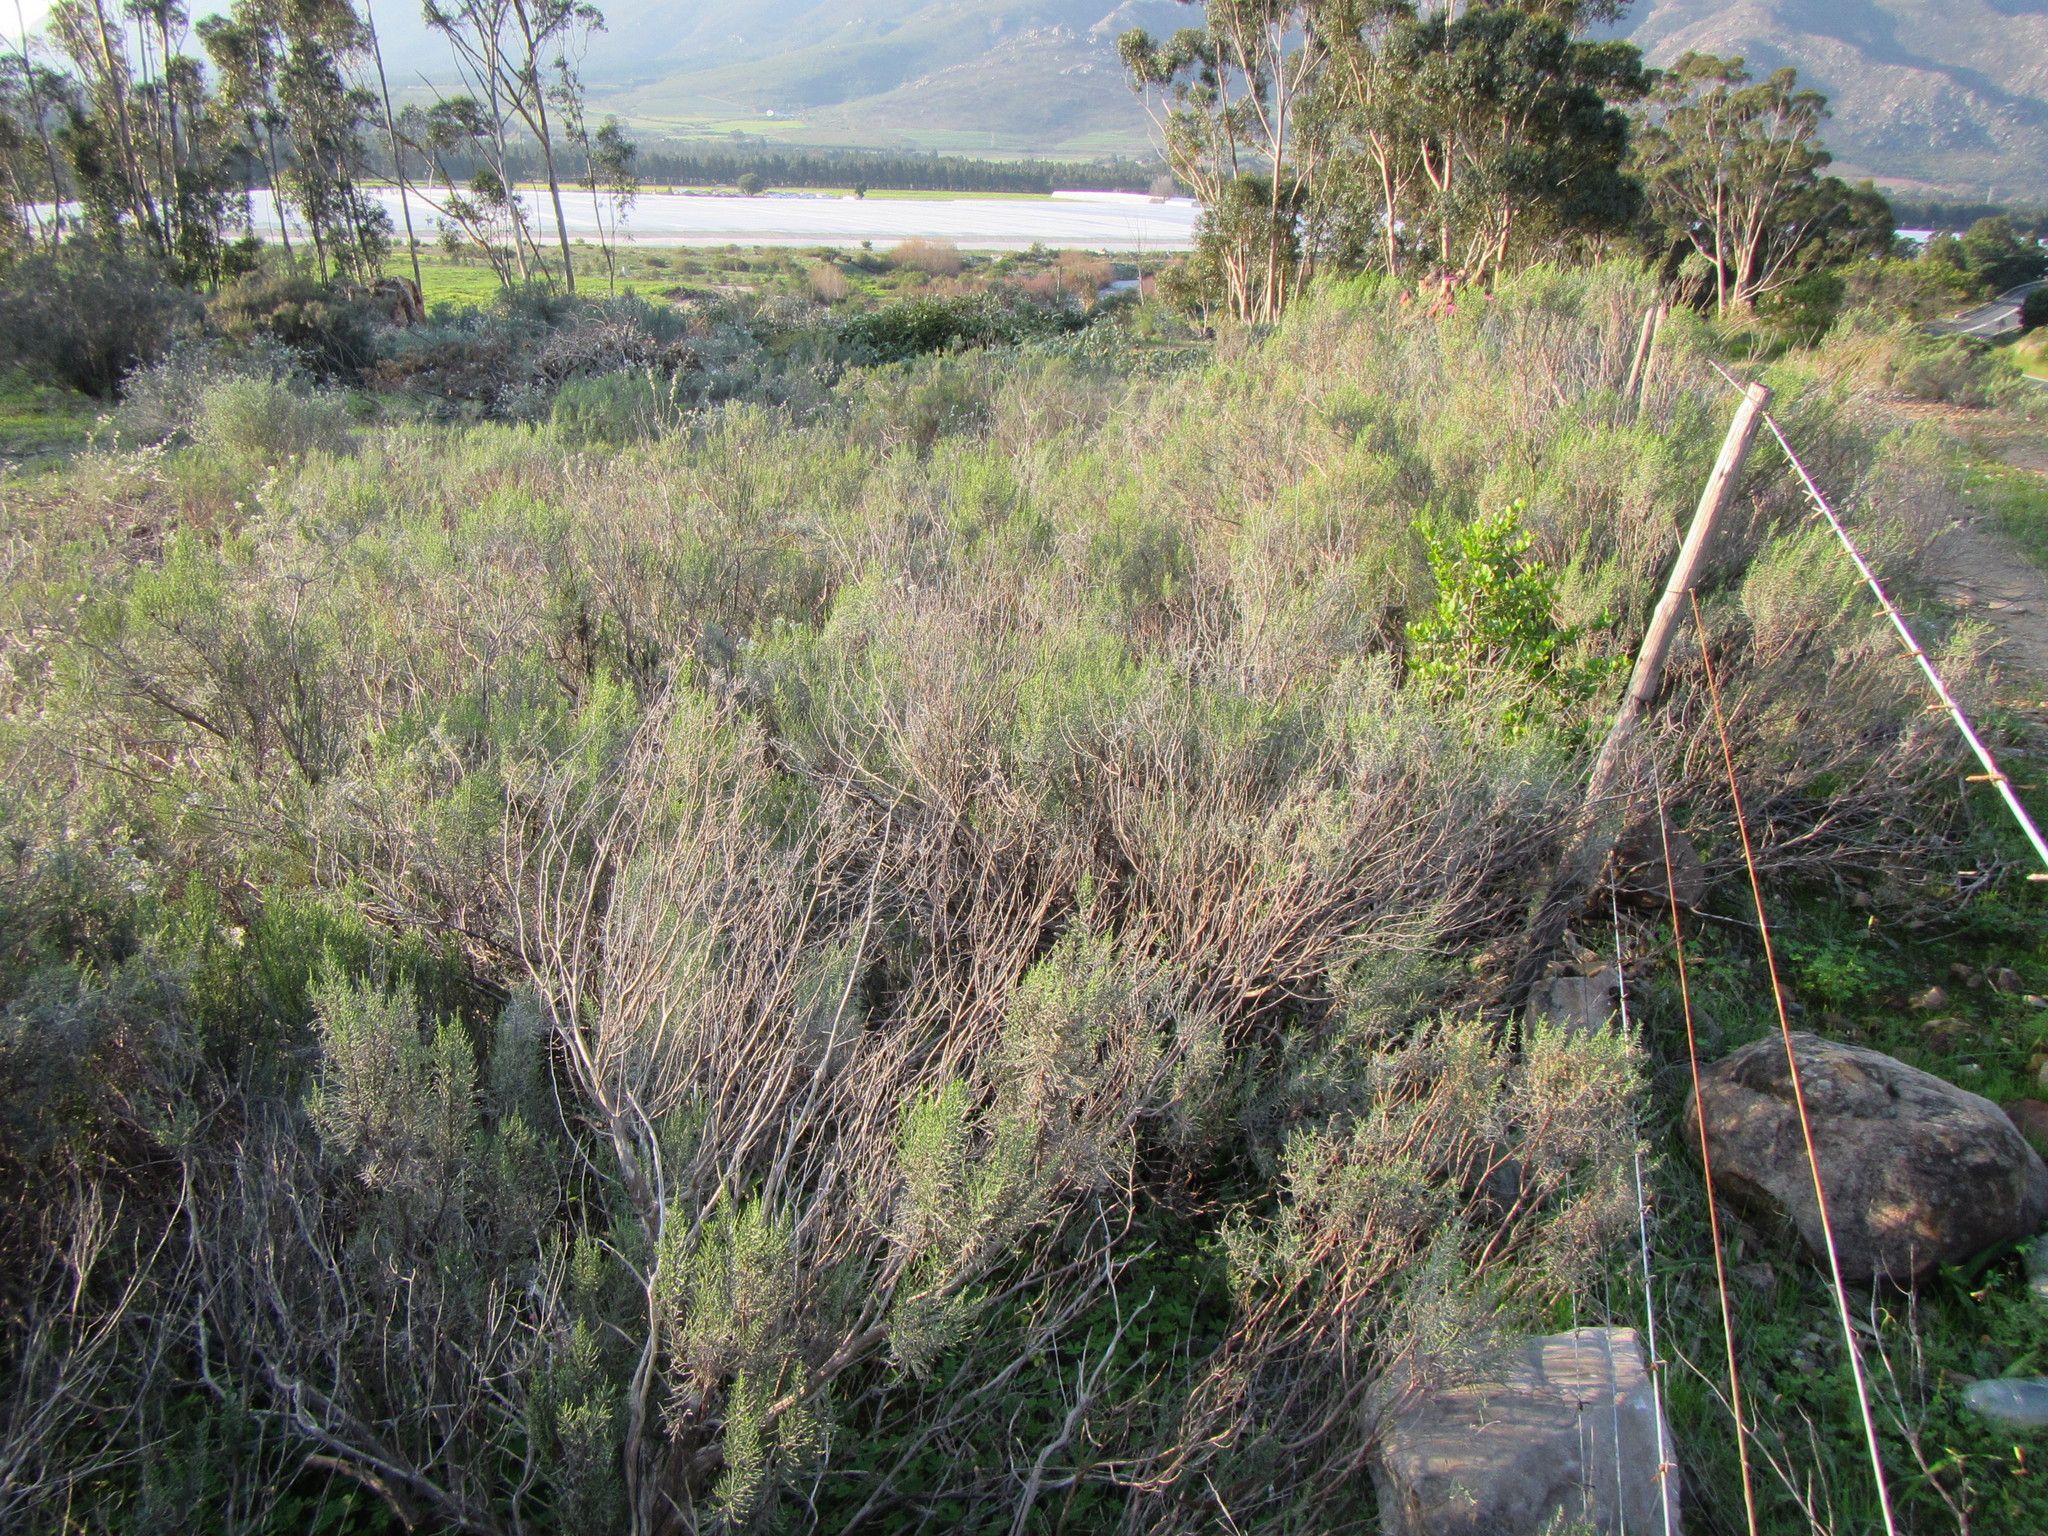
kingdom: Plantae
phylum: Tracheophyta
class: Magnoliopsida
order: Asterales
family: Asteraceae
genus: Dicerothamnus
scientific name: Dicerothamnus rhinocerotis
